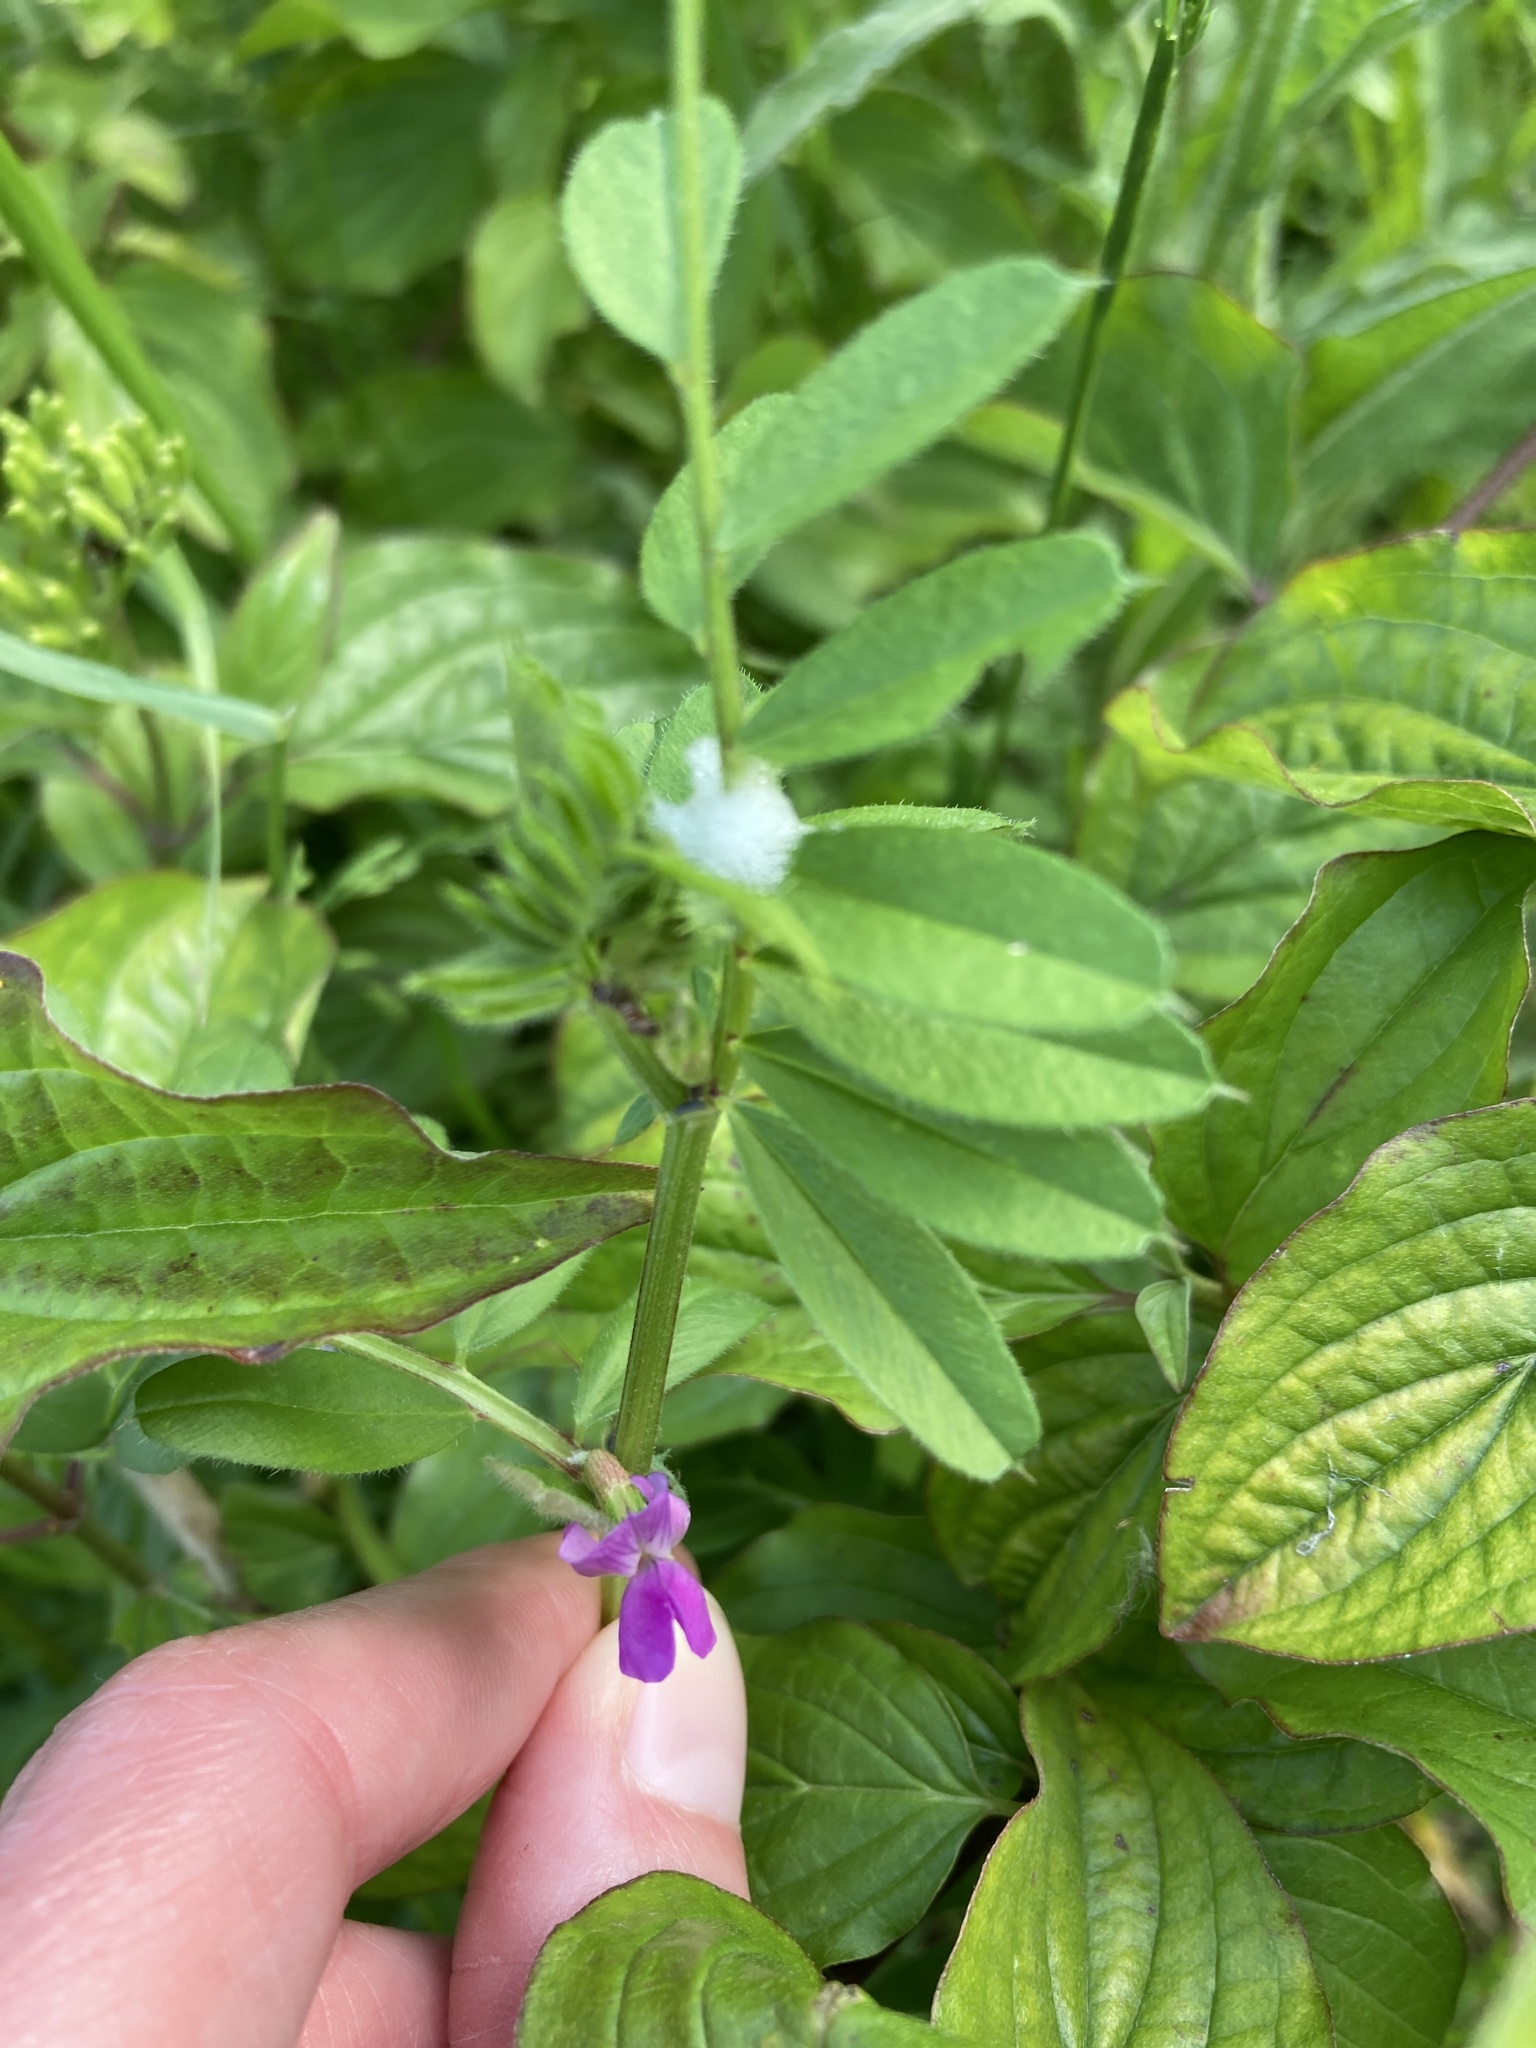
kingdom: Plantae
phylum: Tracheophyta
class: Magnoliopsida
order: Fabales
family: Fabaceae
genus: Vicia
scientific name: Vicia sativa
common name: Garden vetch
